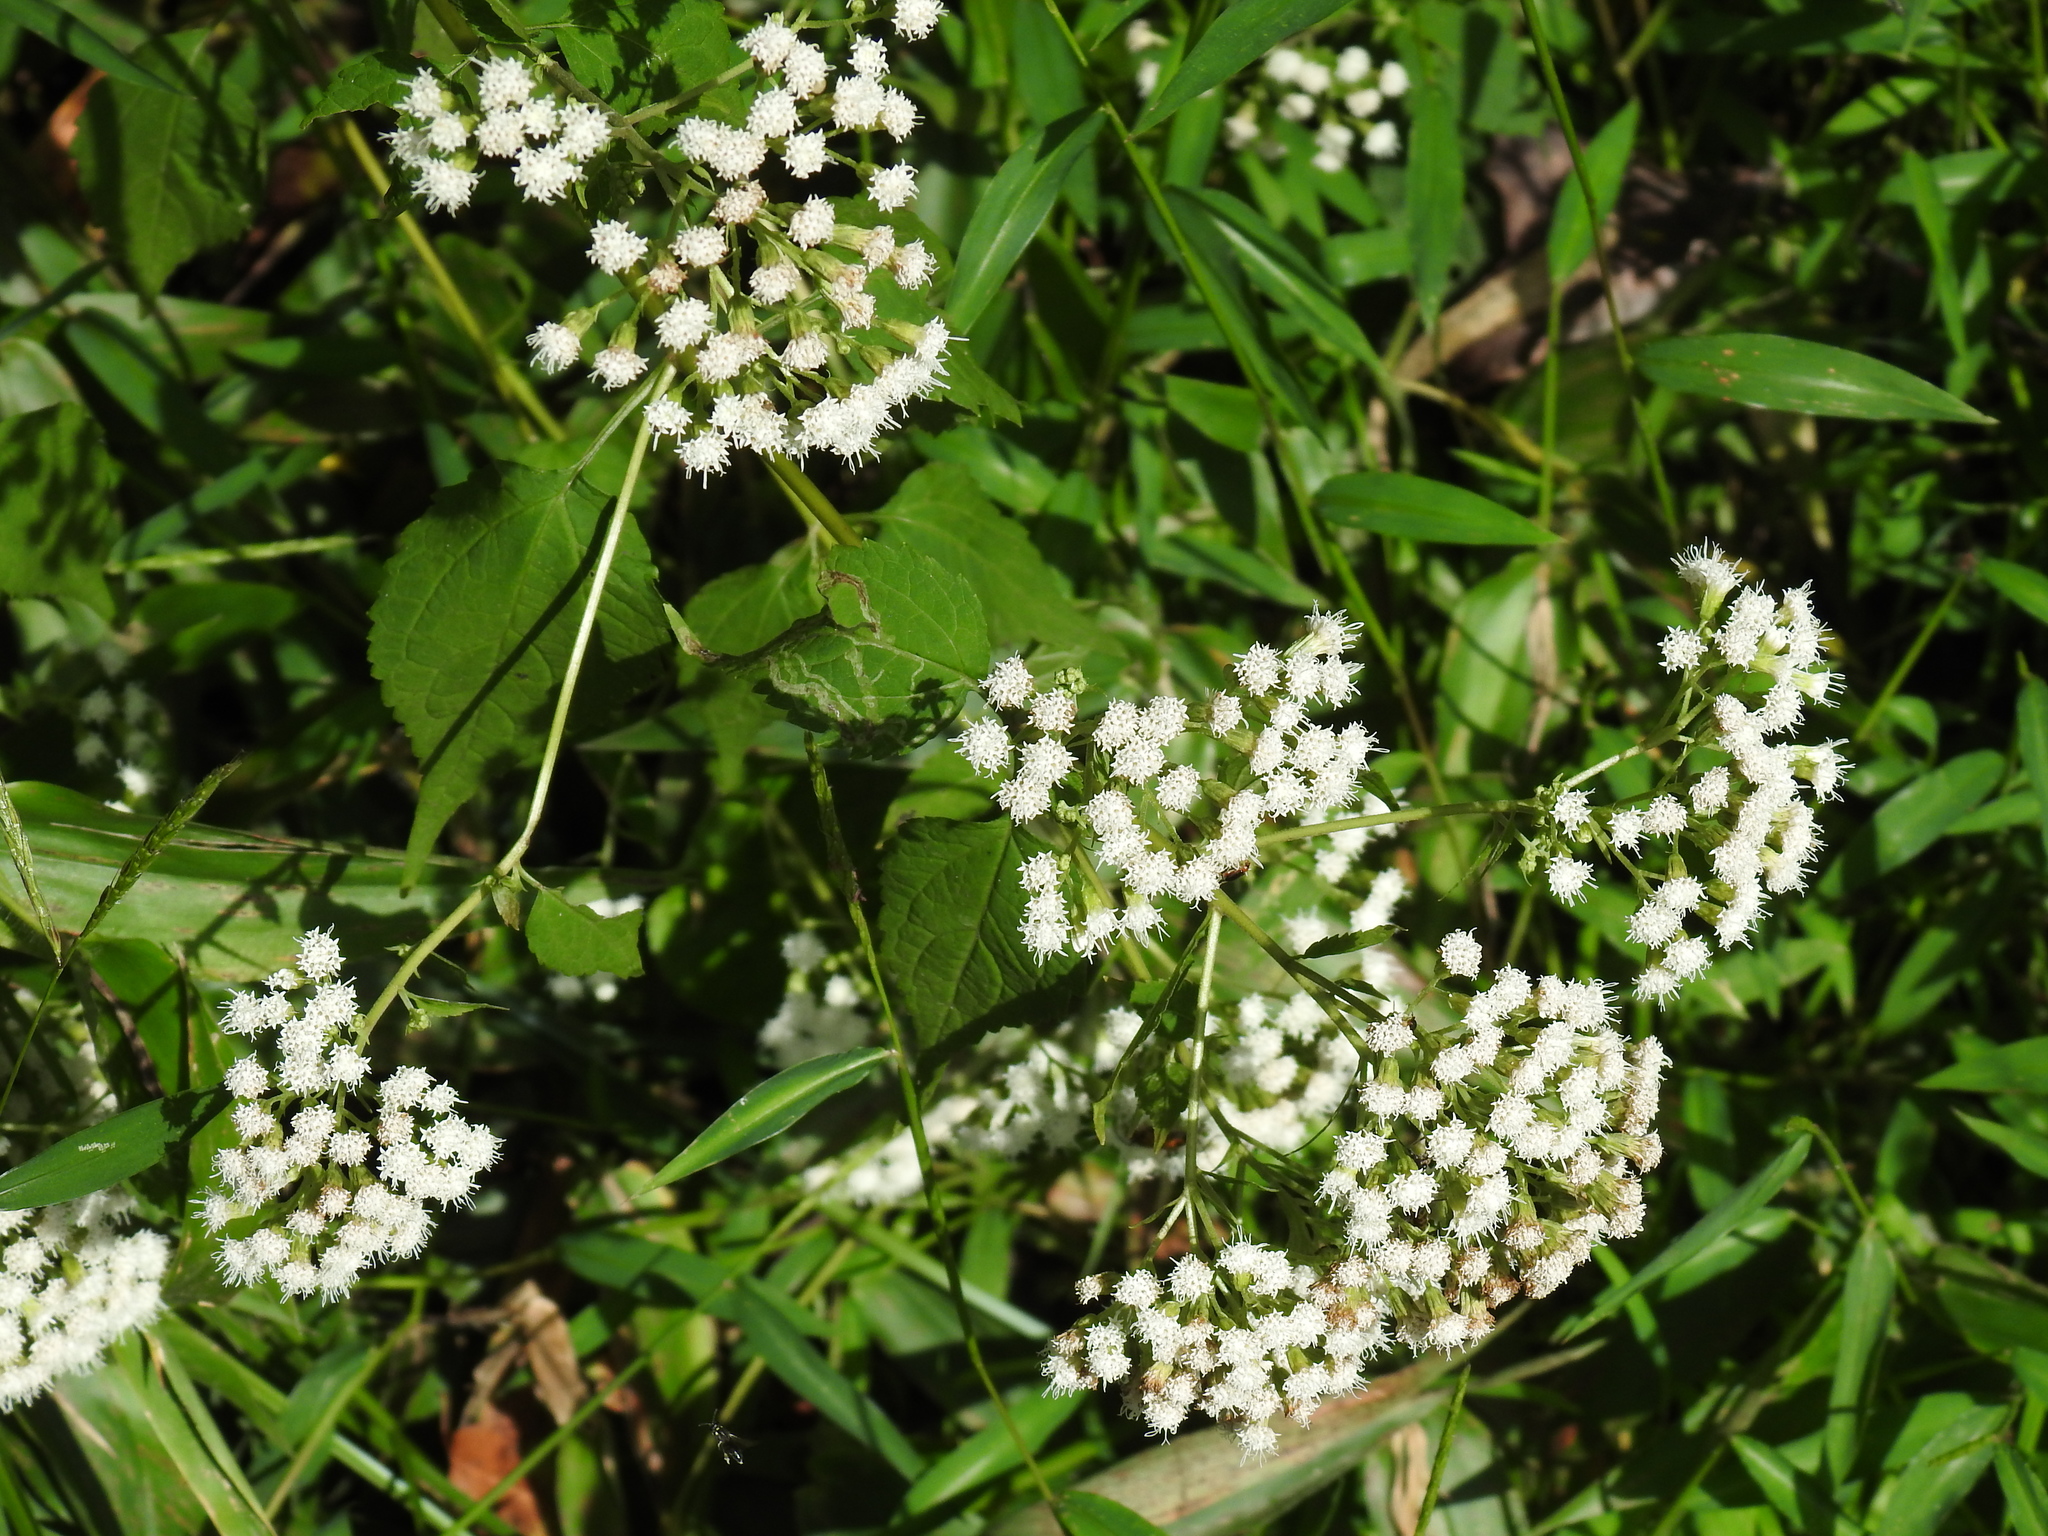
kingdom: Plantae
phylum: Tracheophyta
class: Magnoliopsida
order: Asterales
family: Asteraceae
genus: Ageratina
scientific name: Ageratina altissima
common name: White snakeroot
